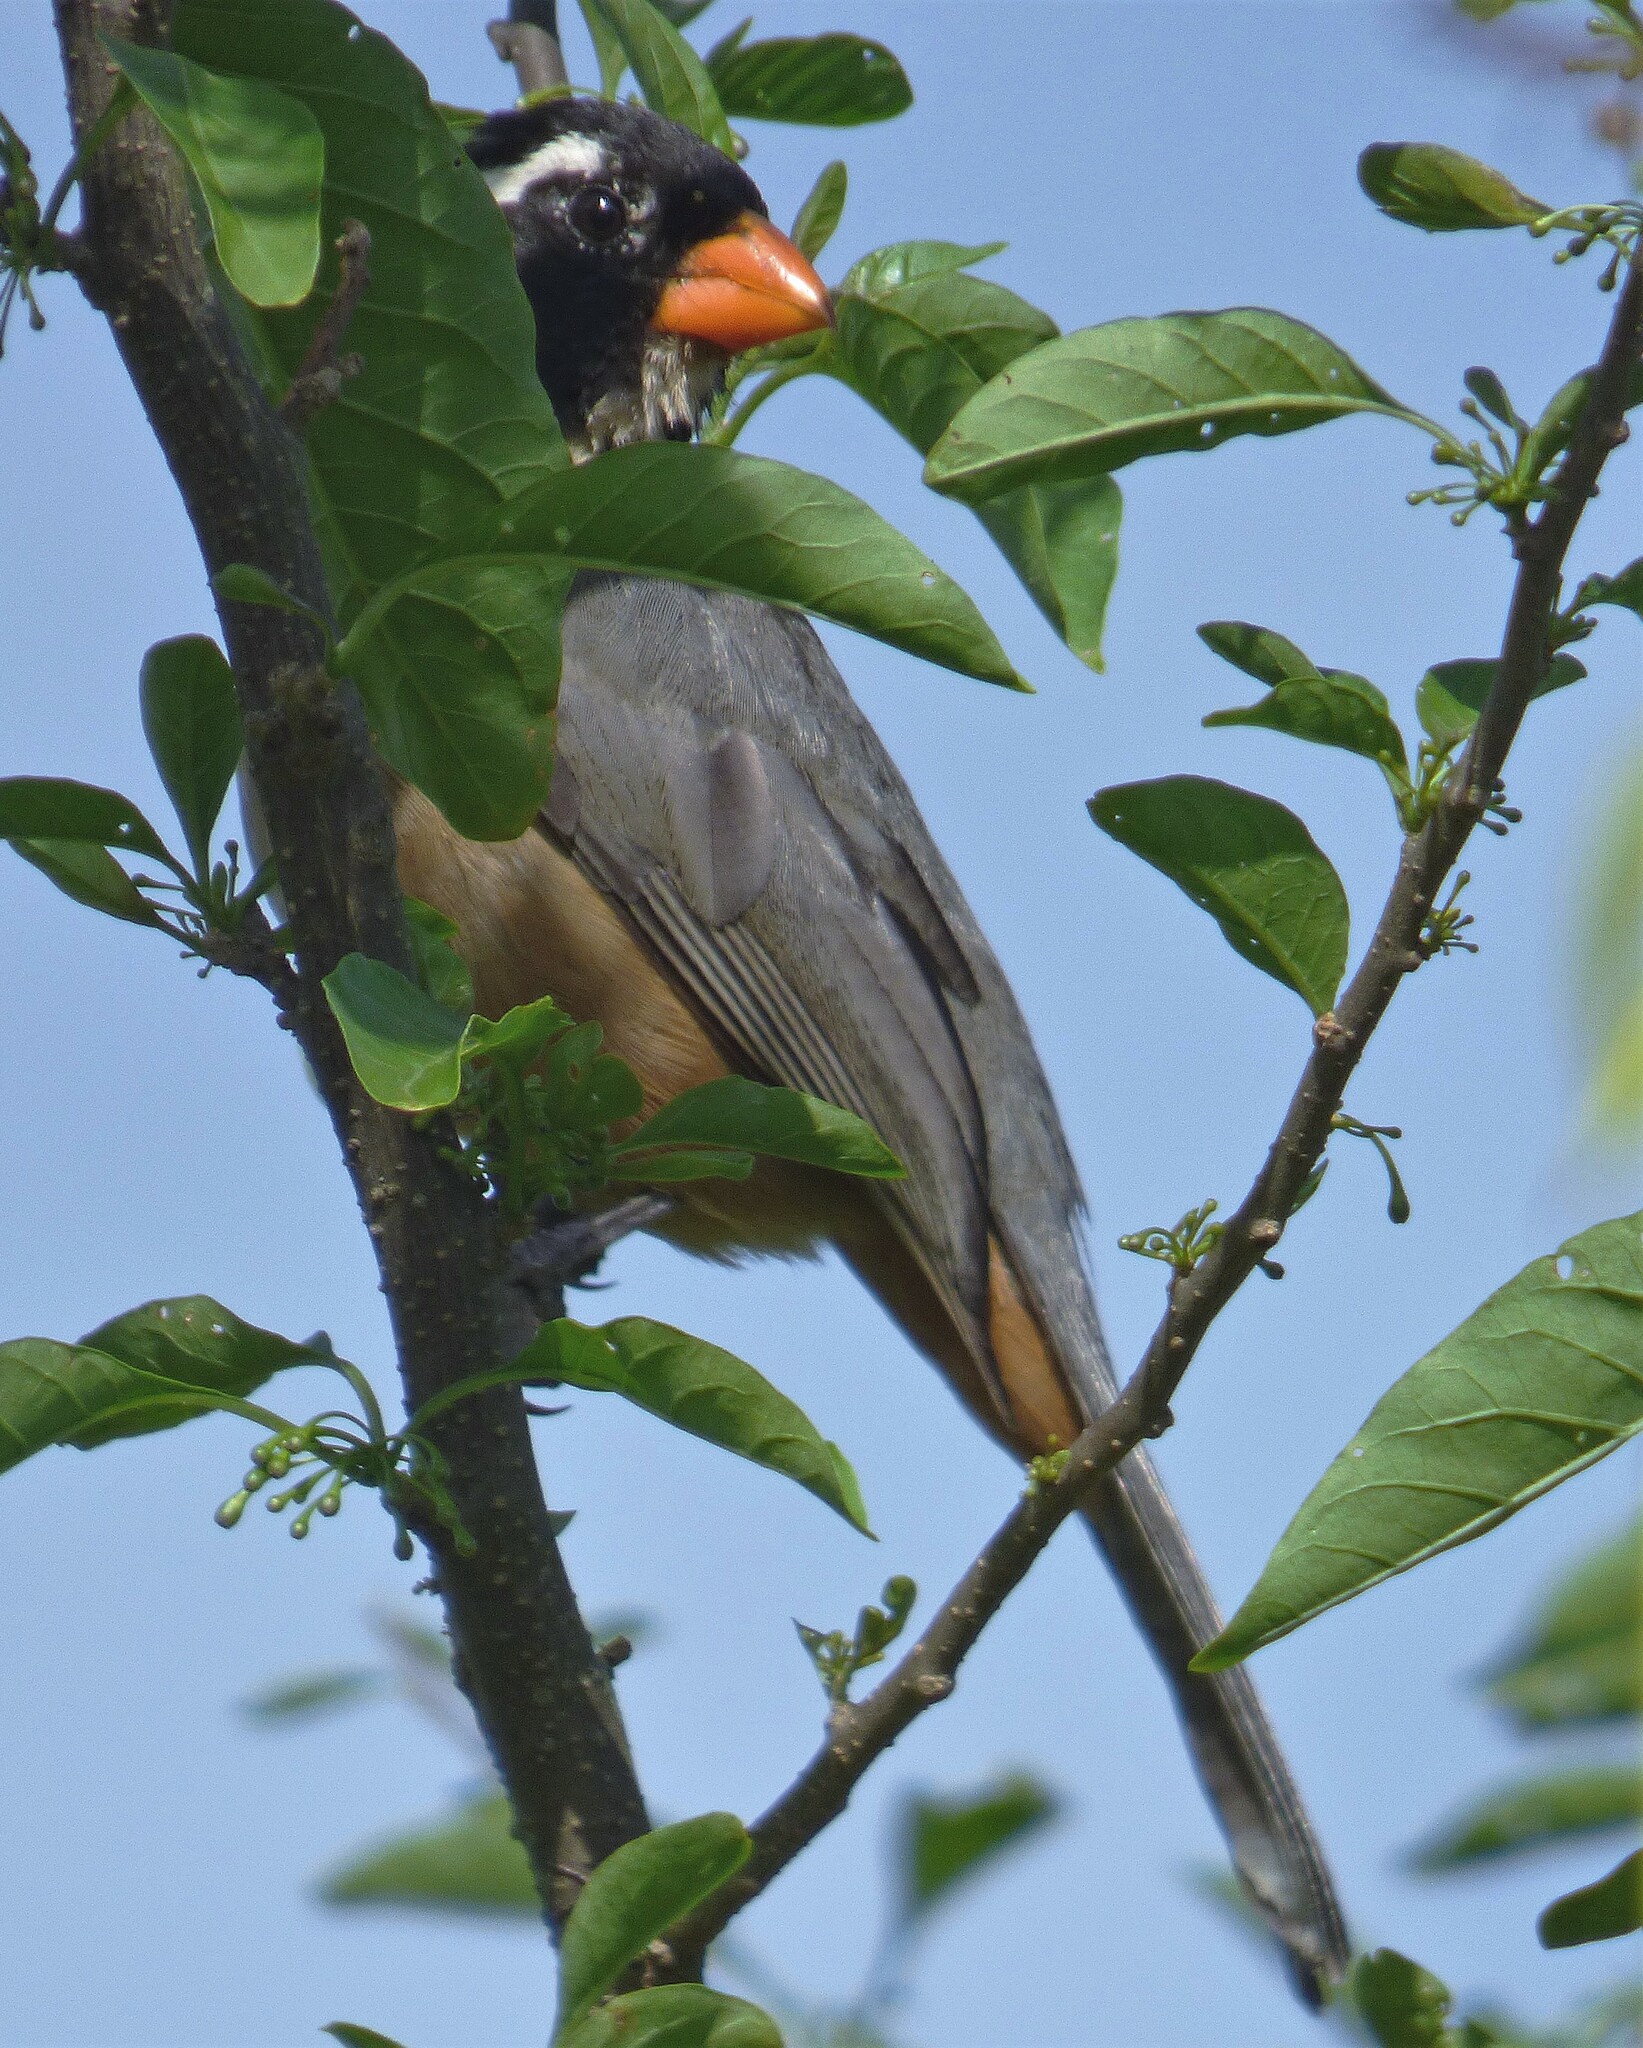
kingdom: Animalia
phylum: Chordata
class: Aves
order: Passeriformes
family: Thraupidae
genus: Saltator
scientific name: Saltator aurantiirostris
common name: Golden-billed saltator
